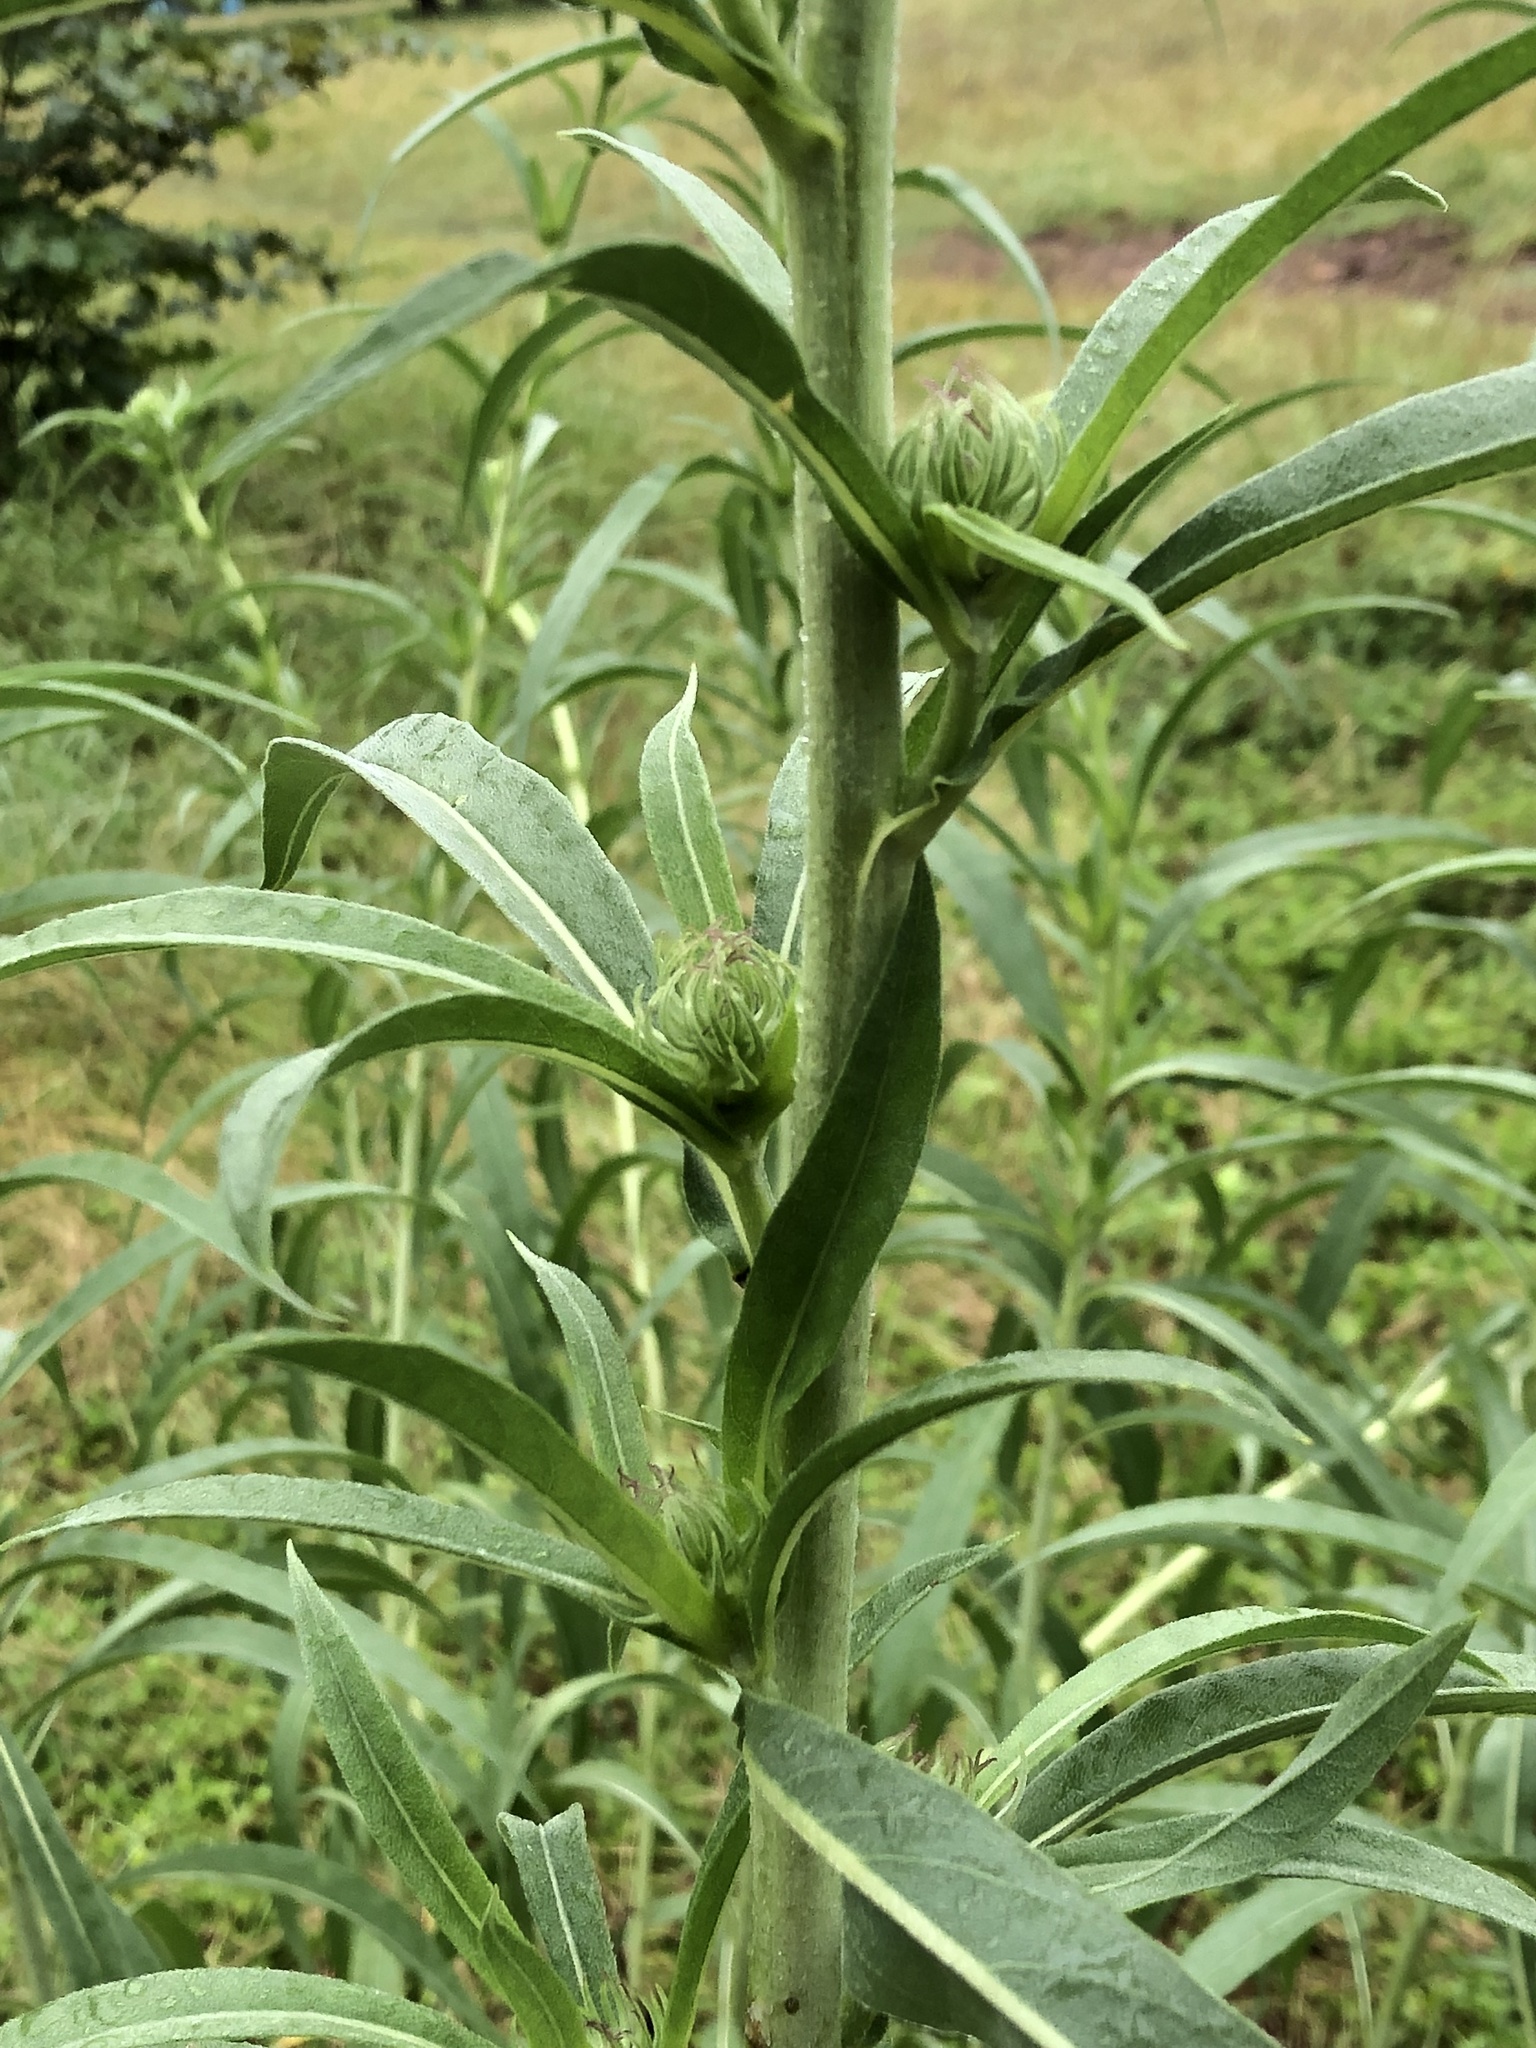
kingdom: Plantae
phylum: Tracheophyta
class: Magnoliopsida
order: Asterales
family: Asteraceae
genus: Helianthus
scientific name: Helianthus maximiliani
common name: Maximilian's sunflower
